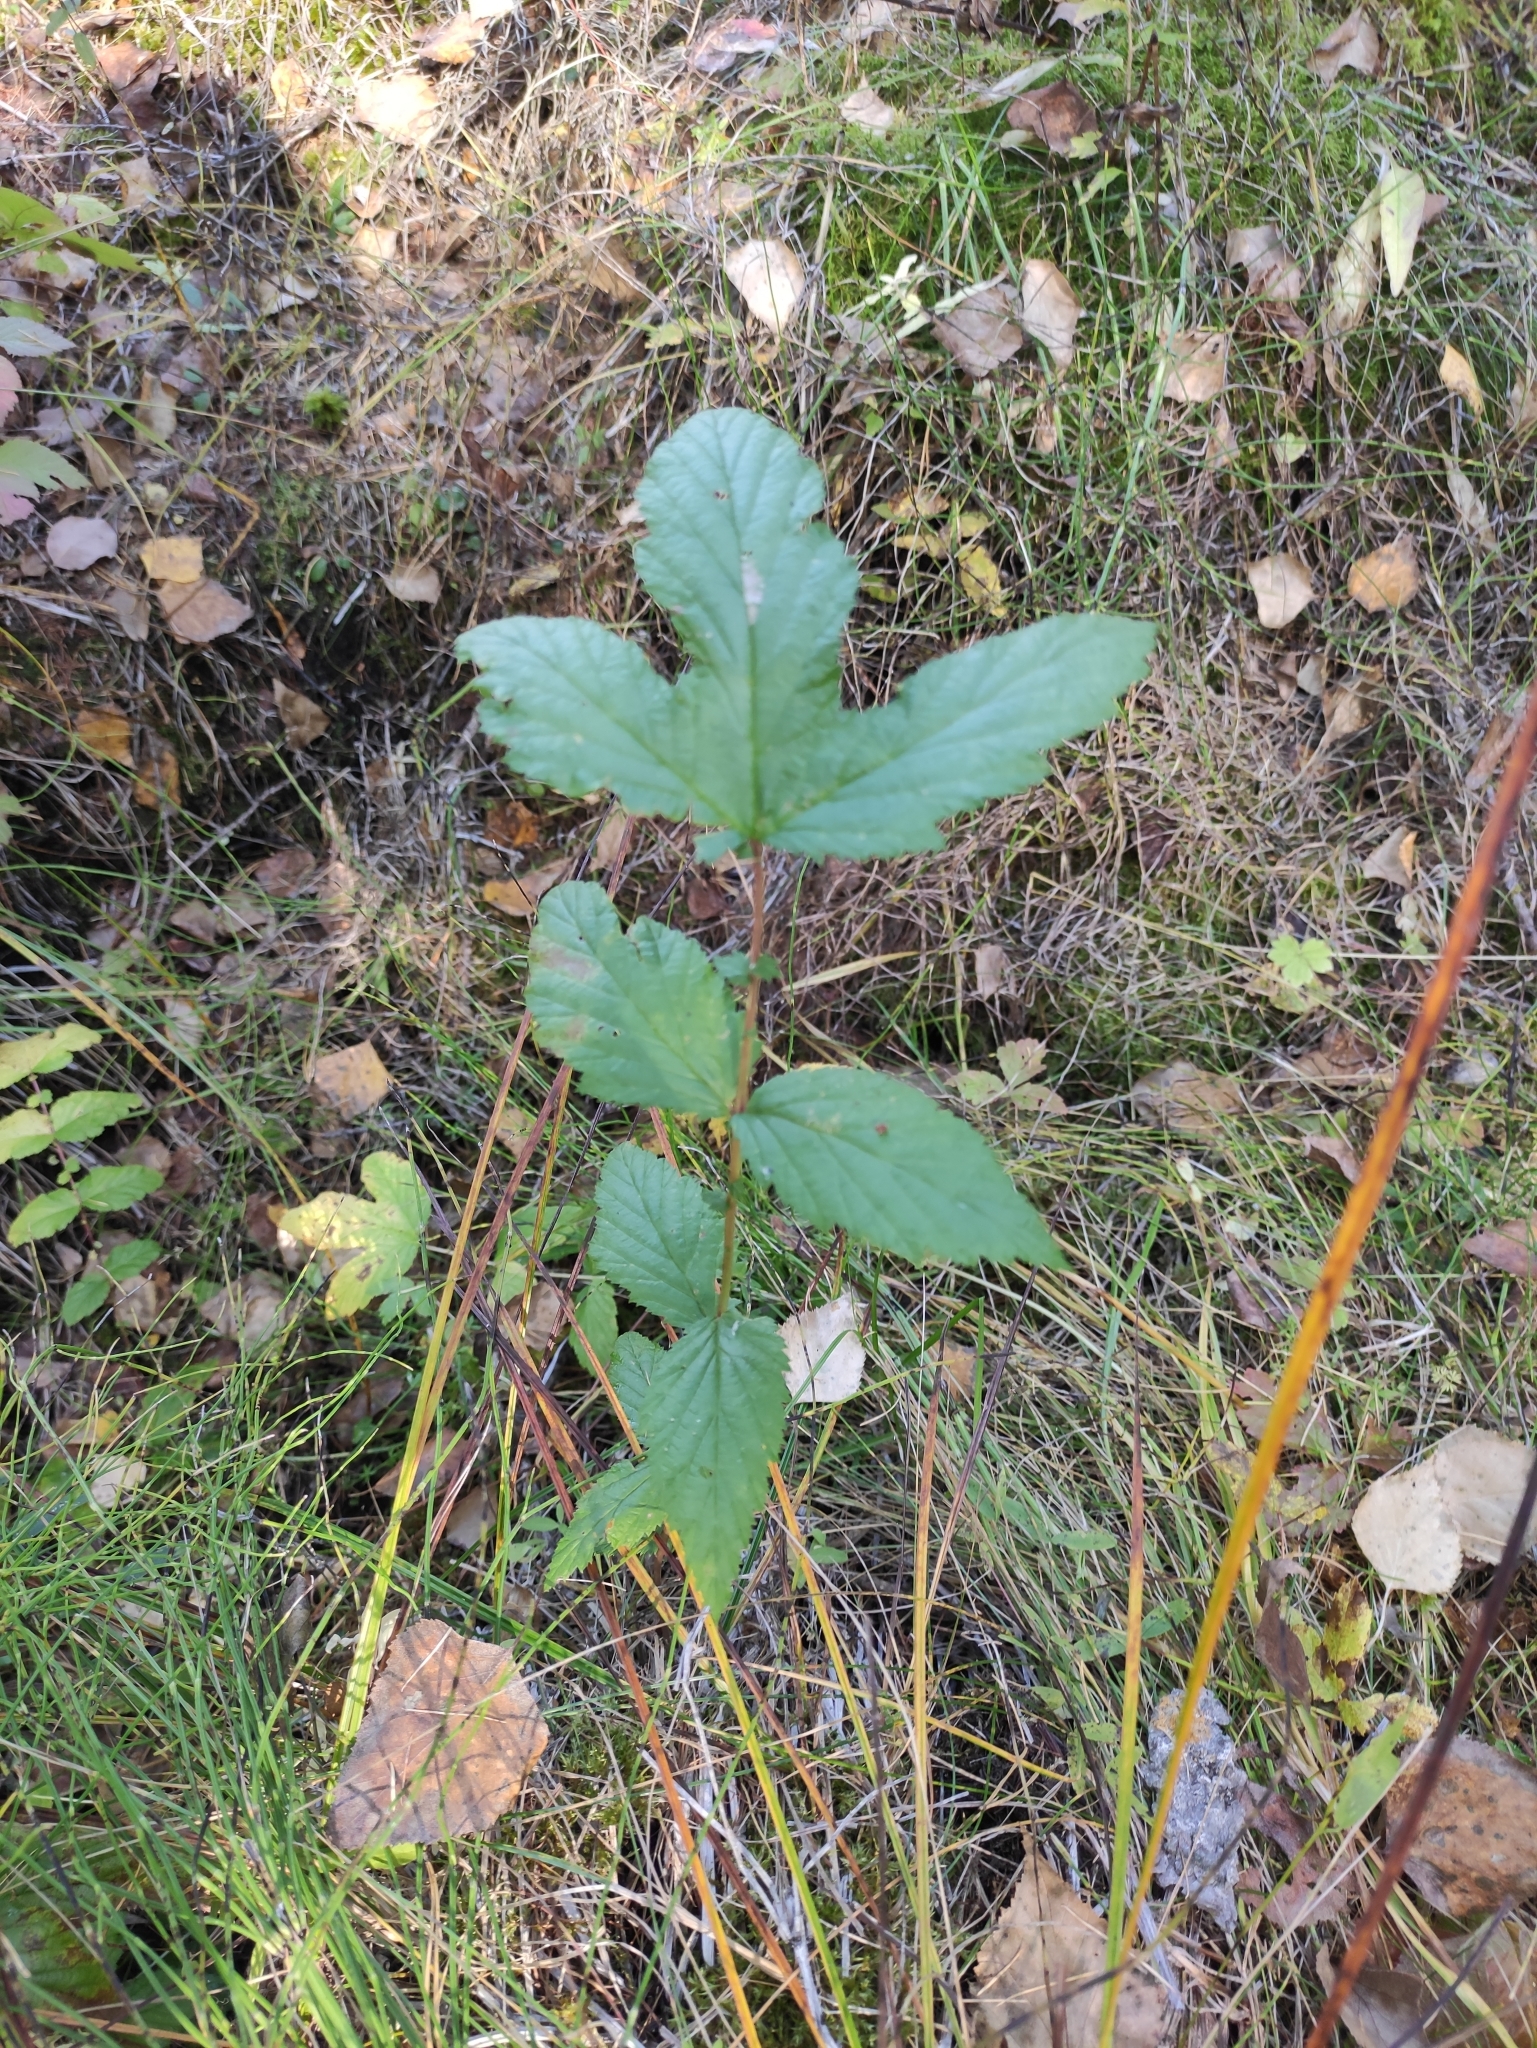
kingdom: Plantae
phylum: Tracheophyta
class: Magnoliopsida
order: Rosales
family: Rosaceae
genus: Filipendula
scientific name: Filipendula ulmaria
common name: Meadowsweet
